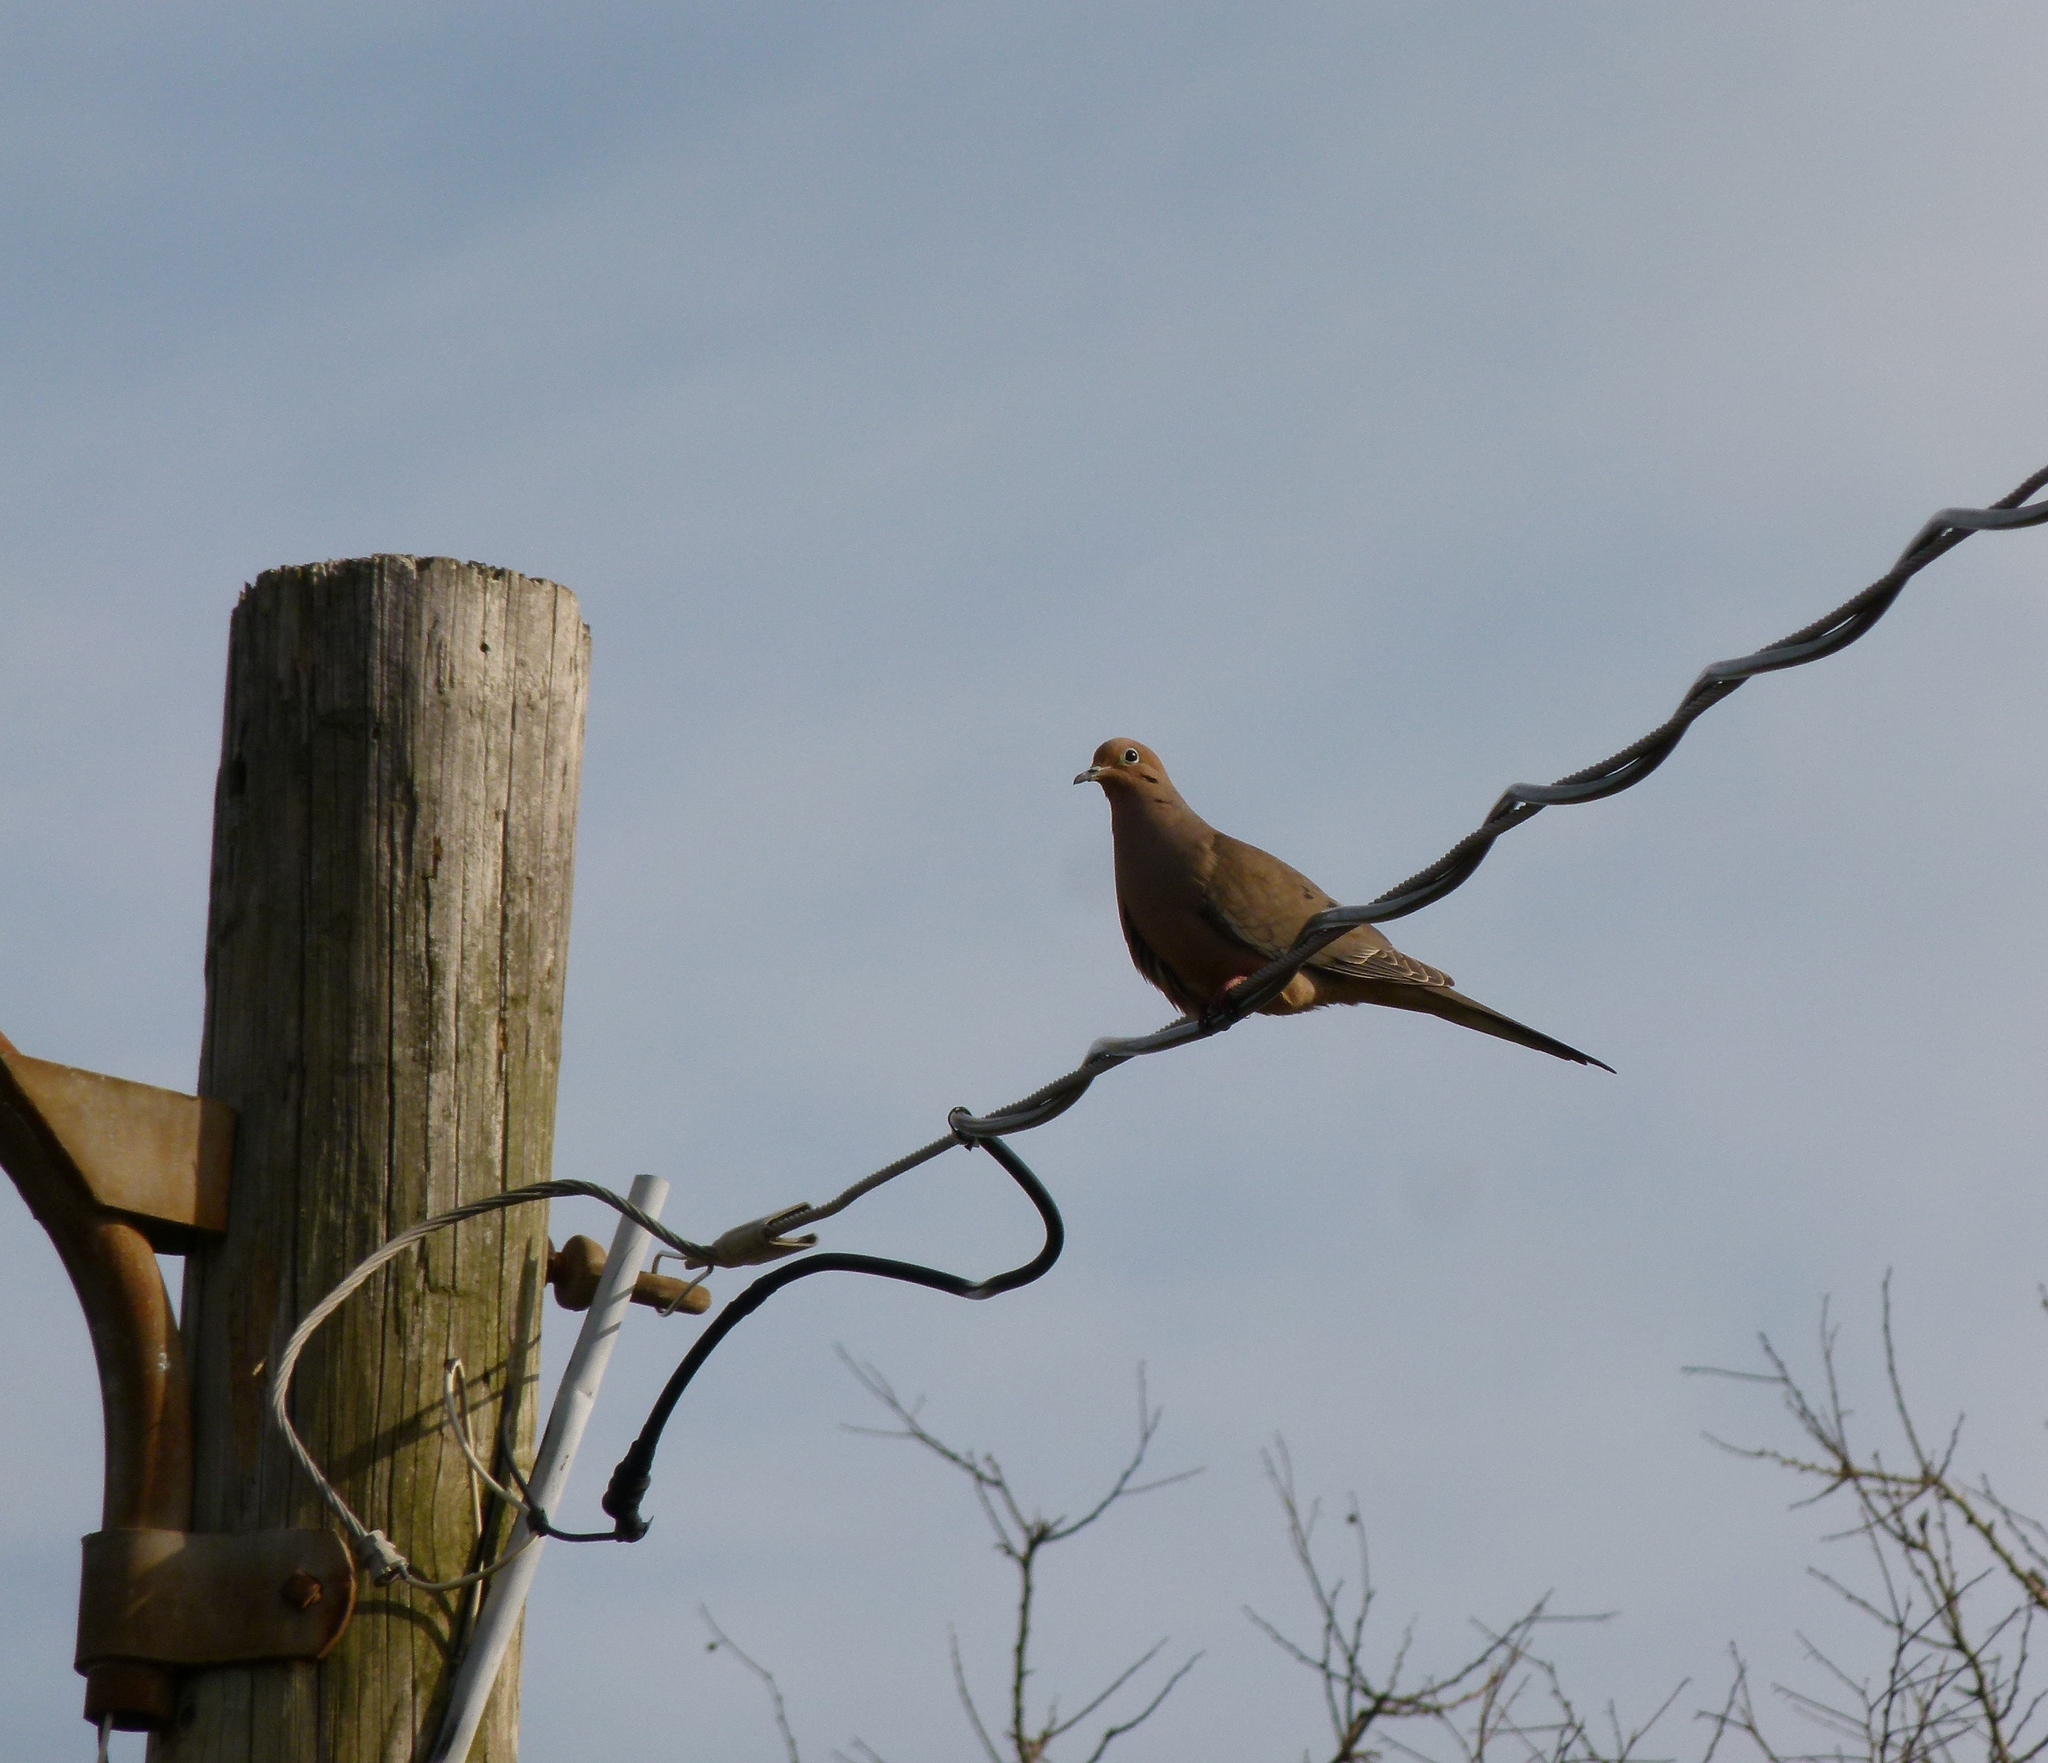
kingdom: Animalia
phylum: Chordata
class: Aves
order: Columbiformes
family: Columbidae
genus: Zenaida
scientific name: Zenaida macroura
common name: Mourning dove
